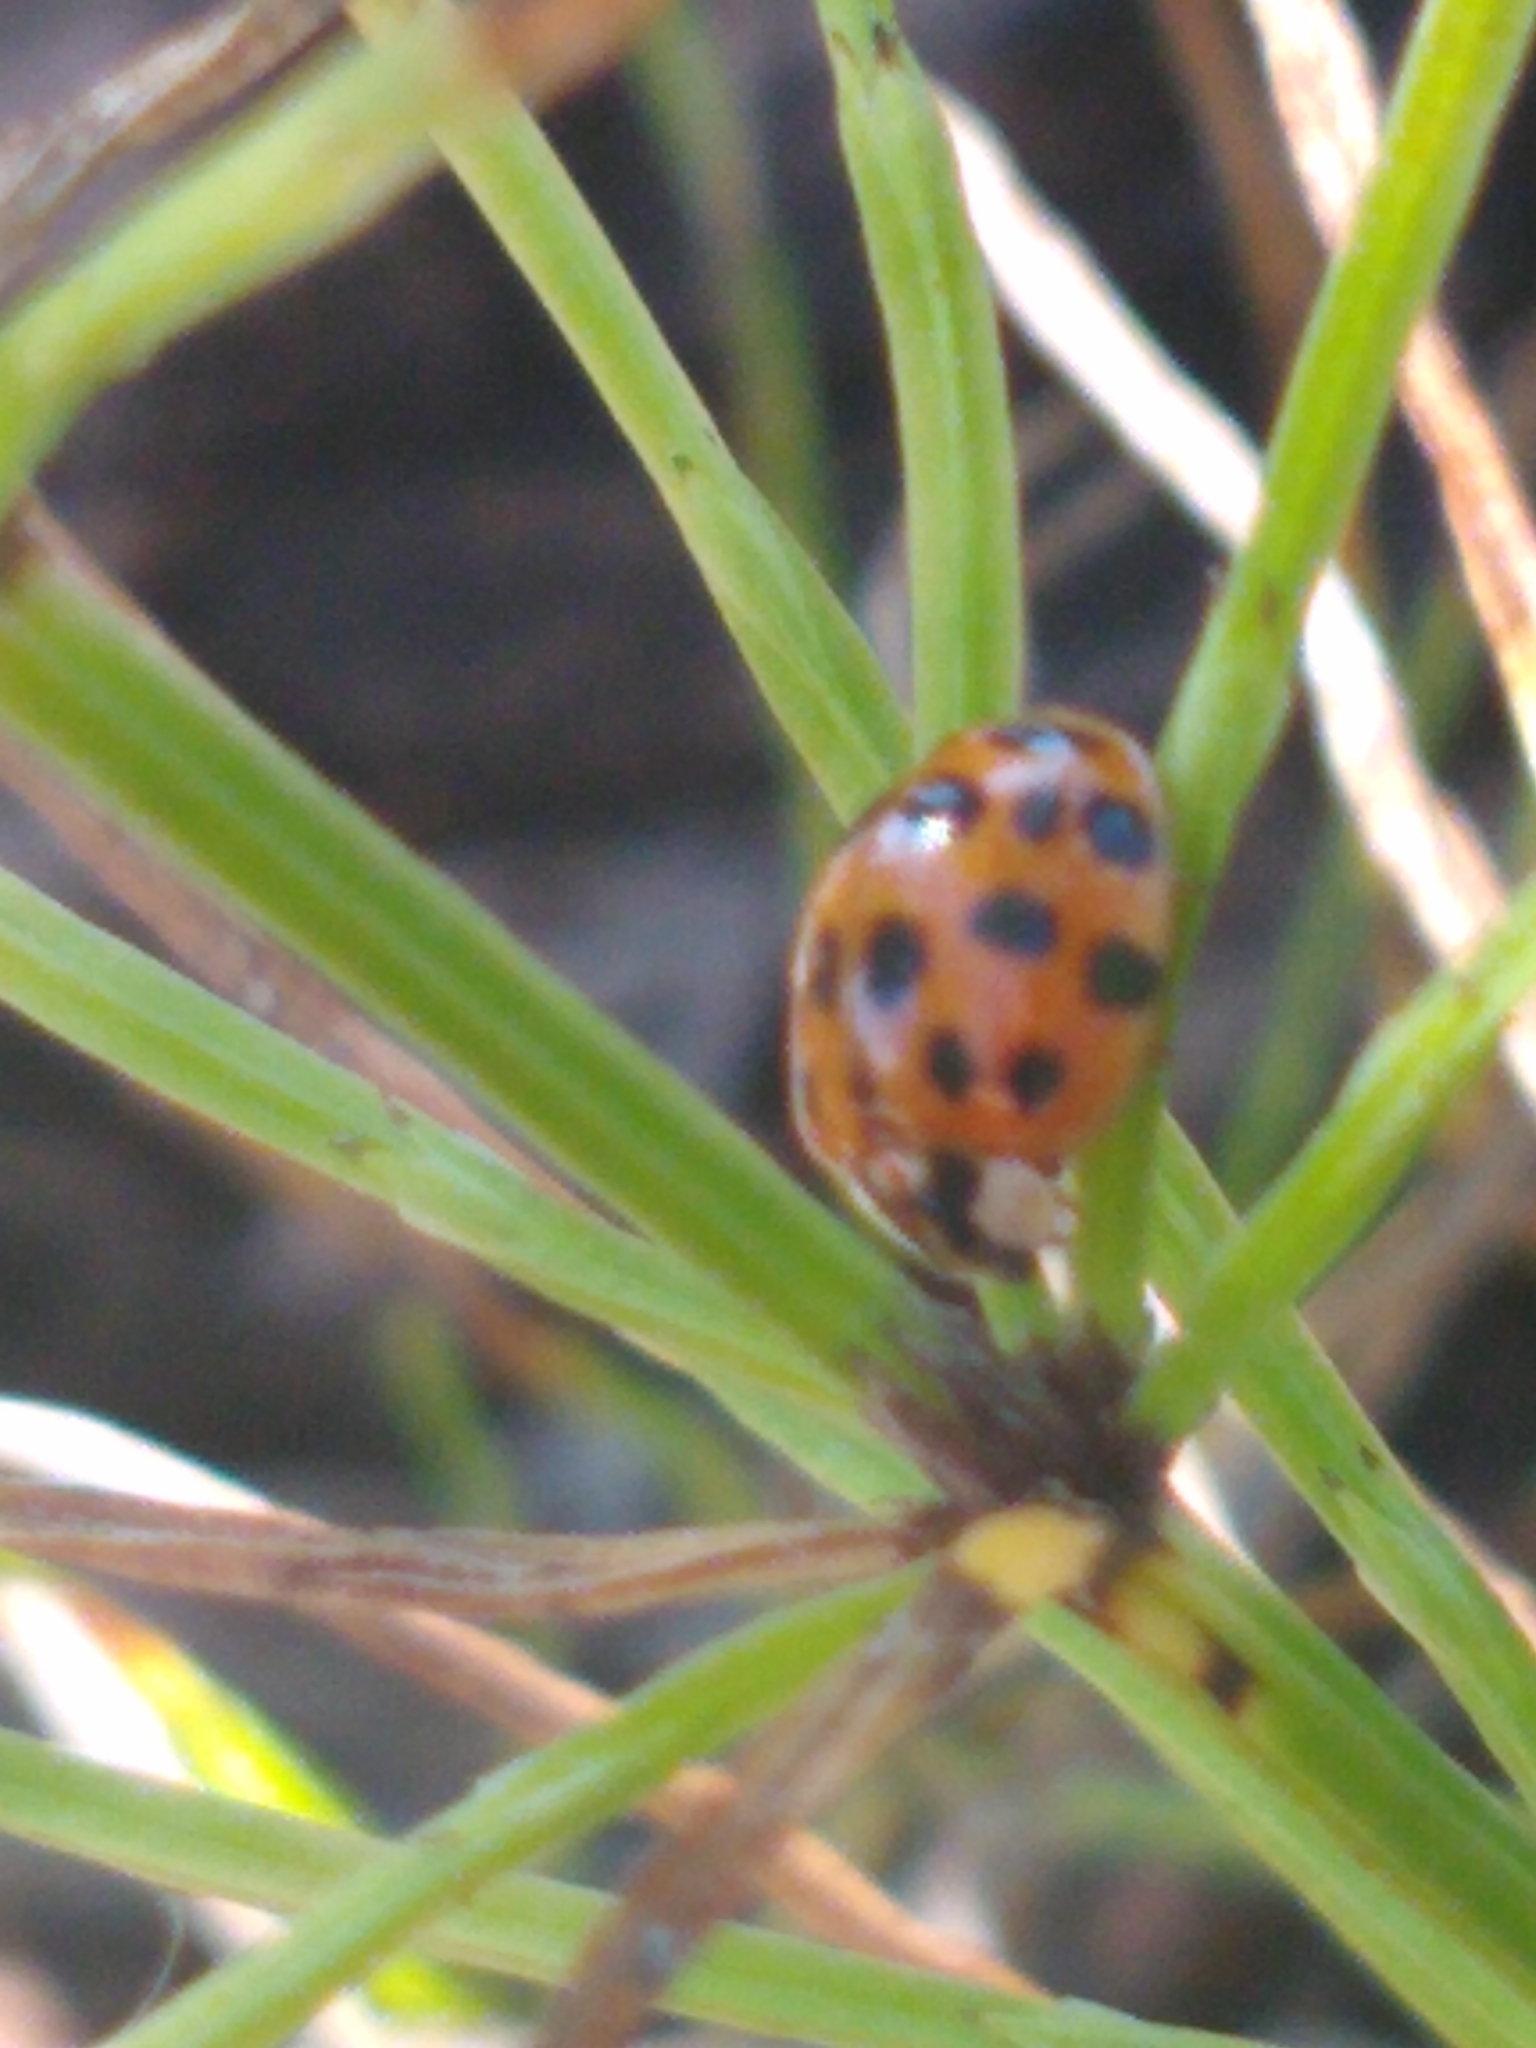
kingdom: Animalia
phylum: Arthropoda
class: Insecta
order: Coleoptera
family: Coccinellidae
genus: Harmonia
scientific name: Harmonia axyridis
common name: Harlequin ladybird
